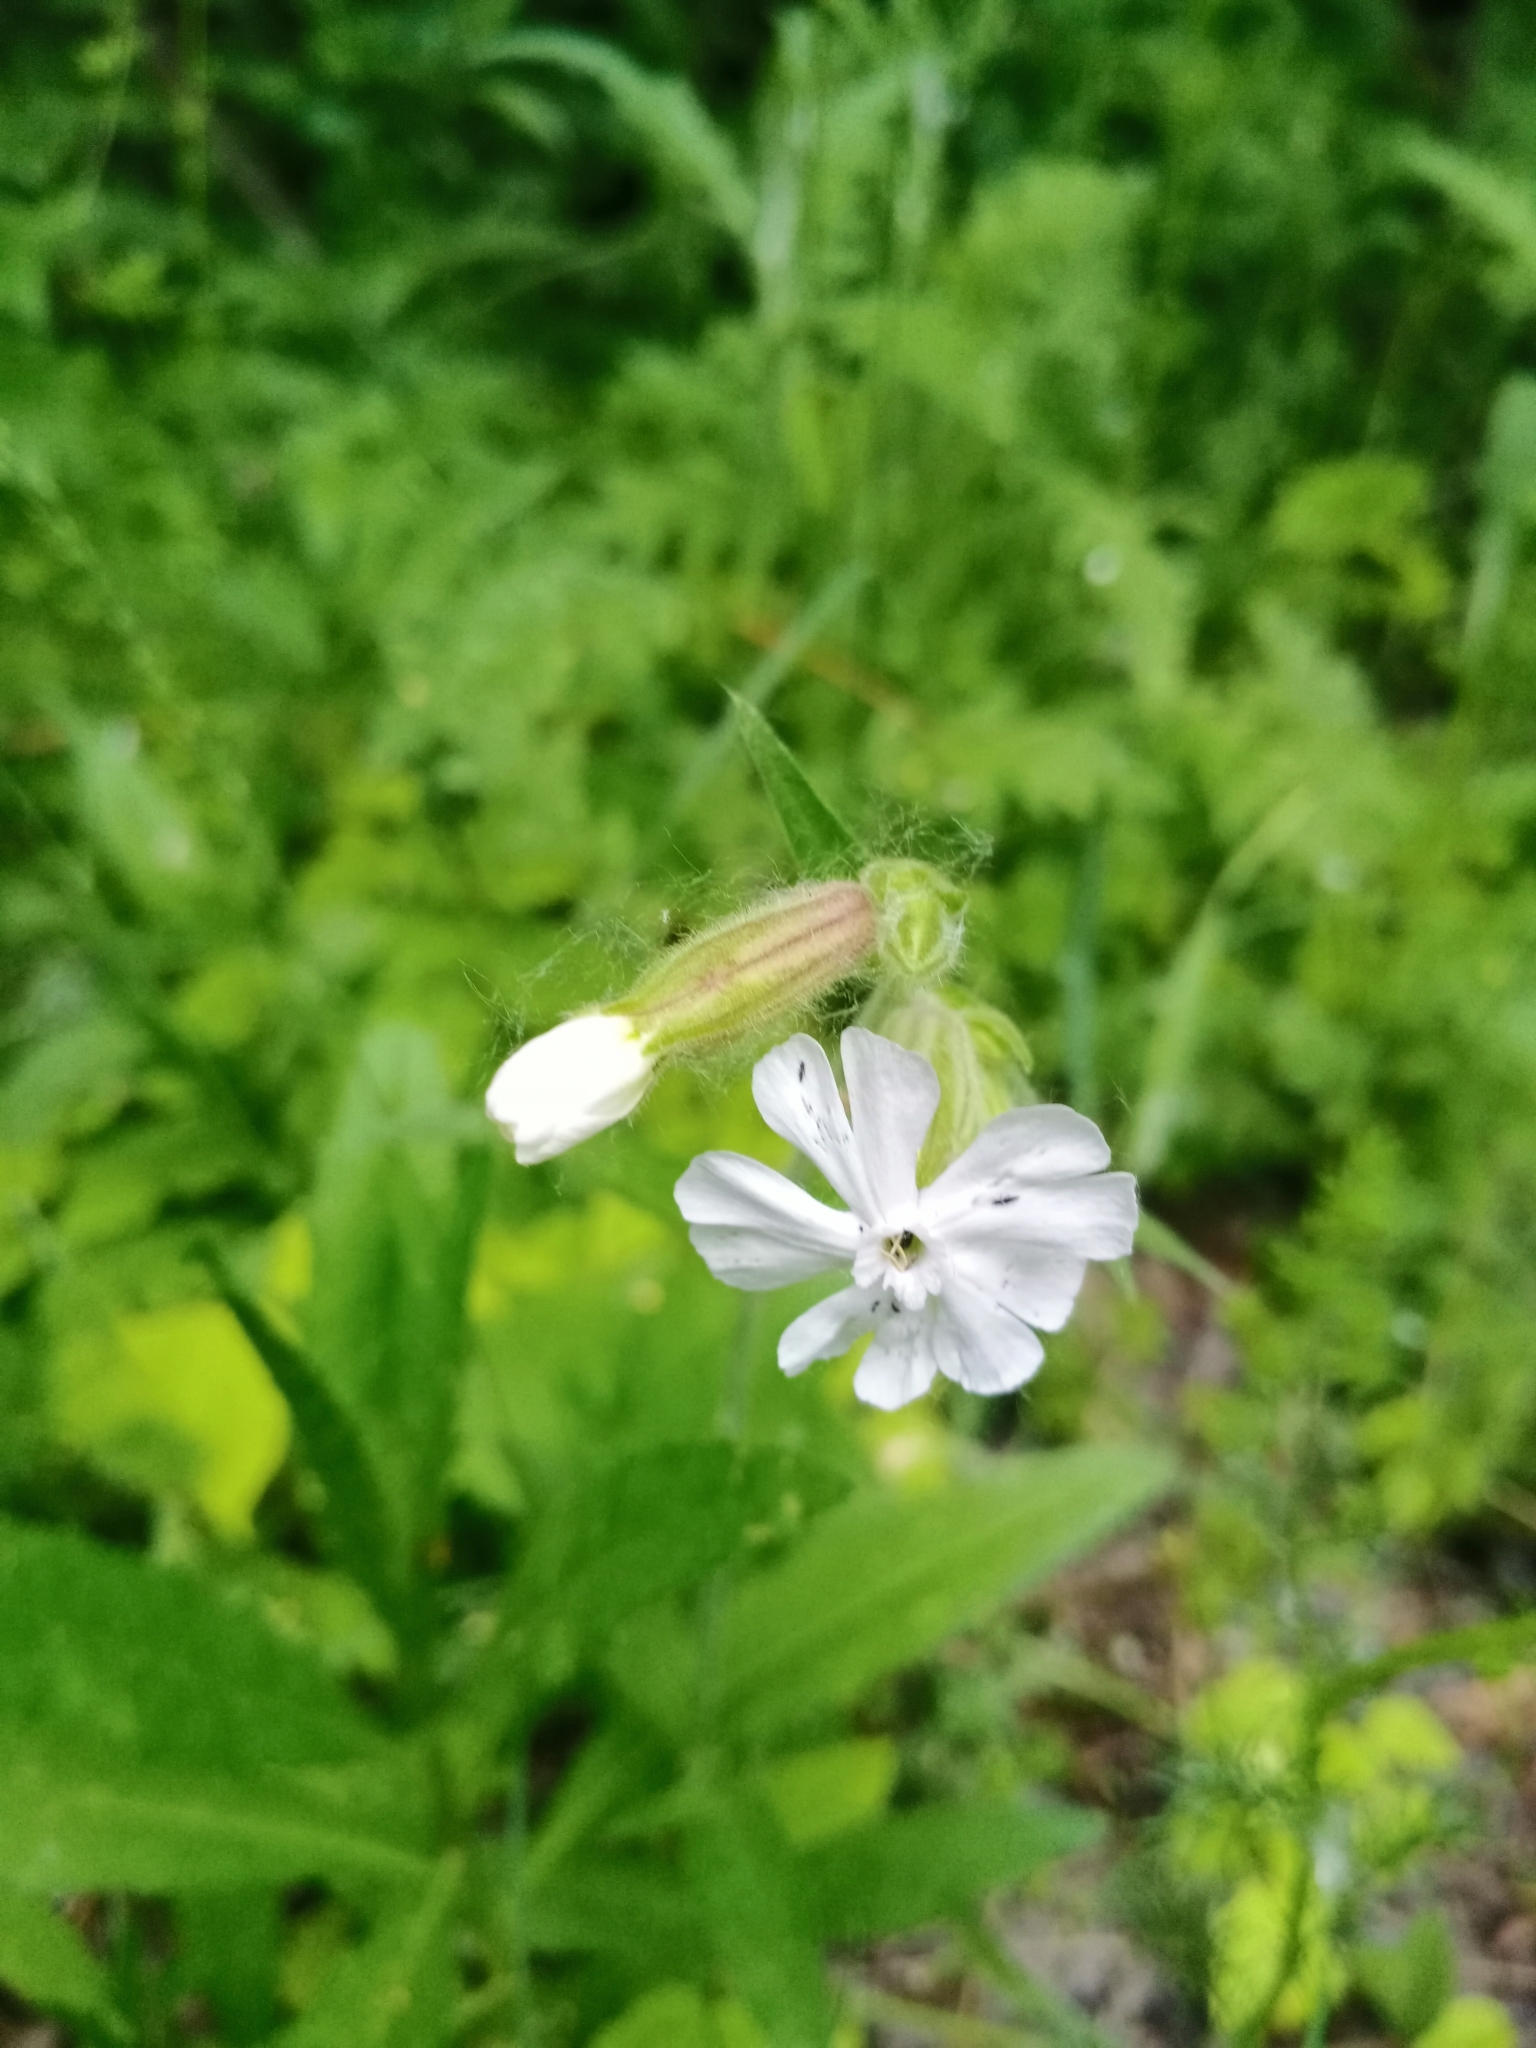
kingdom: Plantae
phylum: Tracheophyta
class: Magnoliopsida
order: Caryophyllales
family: Caryophyllaceae
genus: Silene
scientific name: Silene latifolia
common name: White campion
